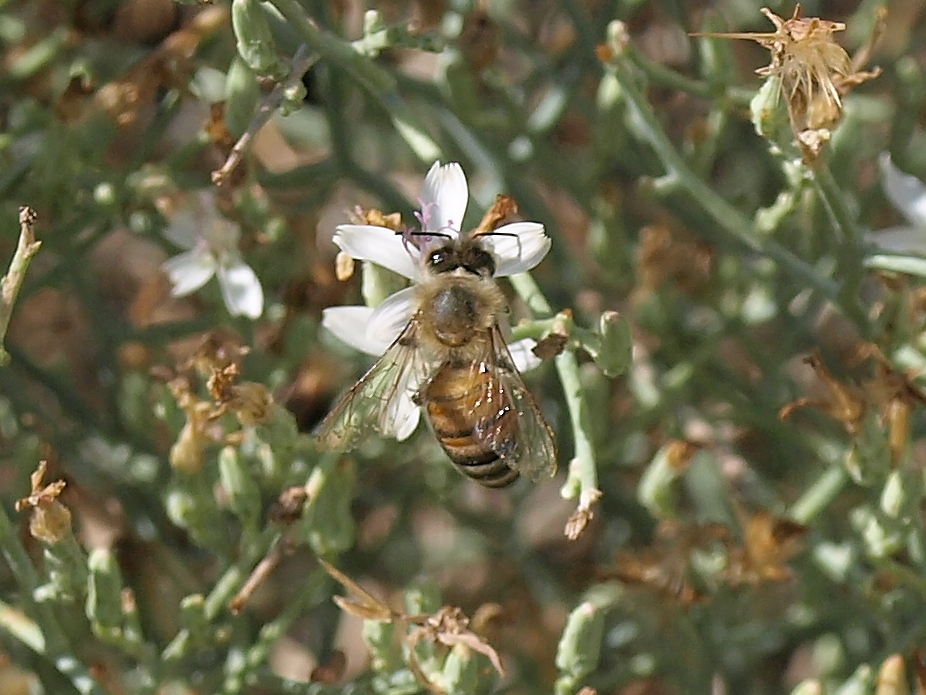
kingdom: Animalia
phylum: Arthropoda
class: Insecta
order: Hymenoptera
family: Apidae
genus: Apis
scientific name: Apis mellifera
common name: Honey bee
